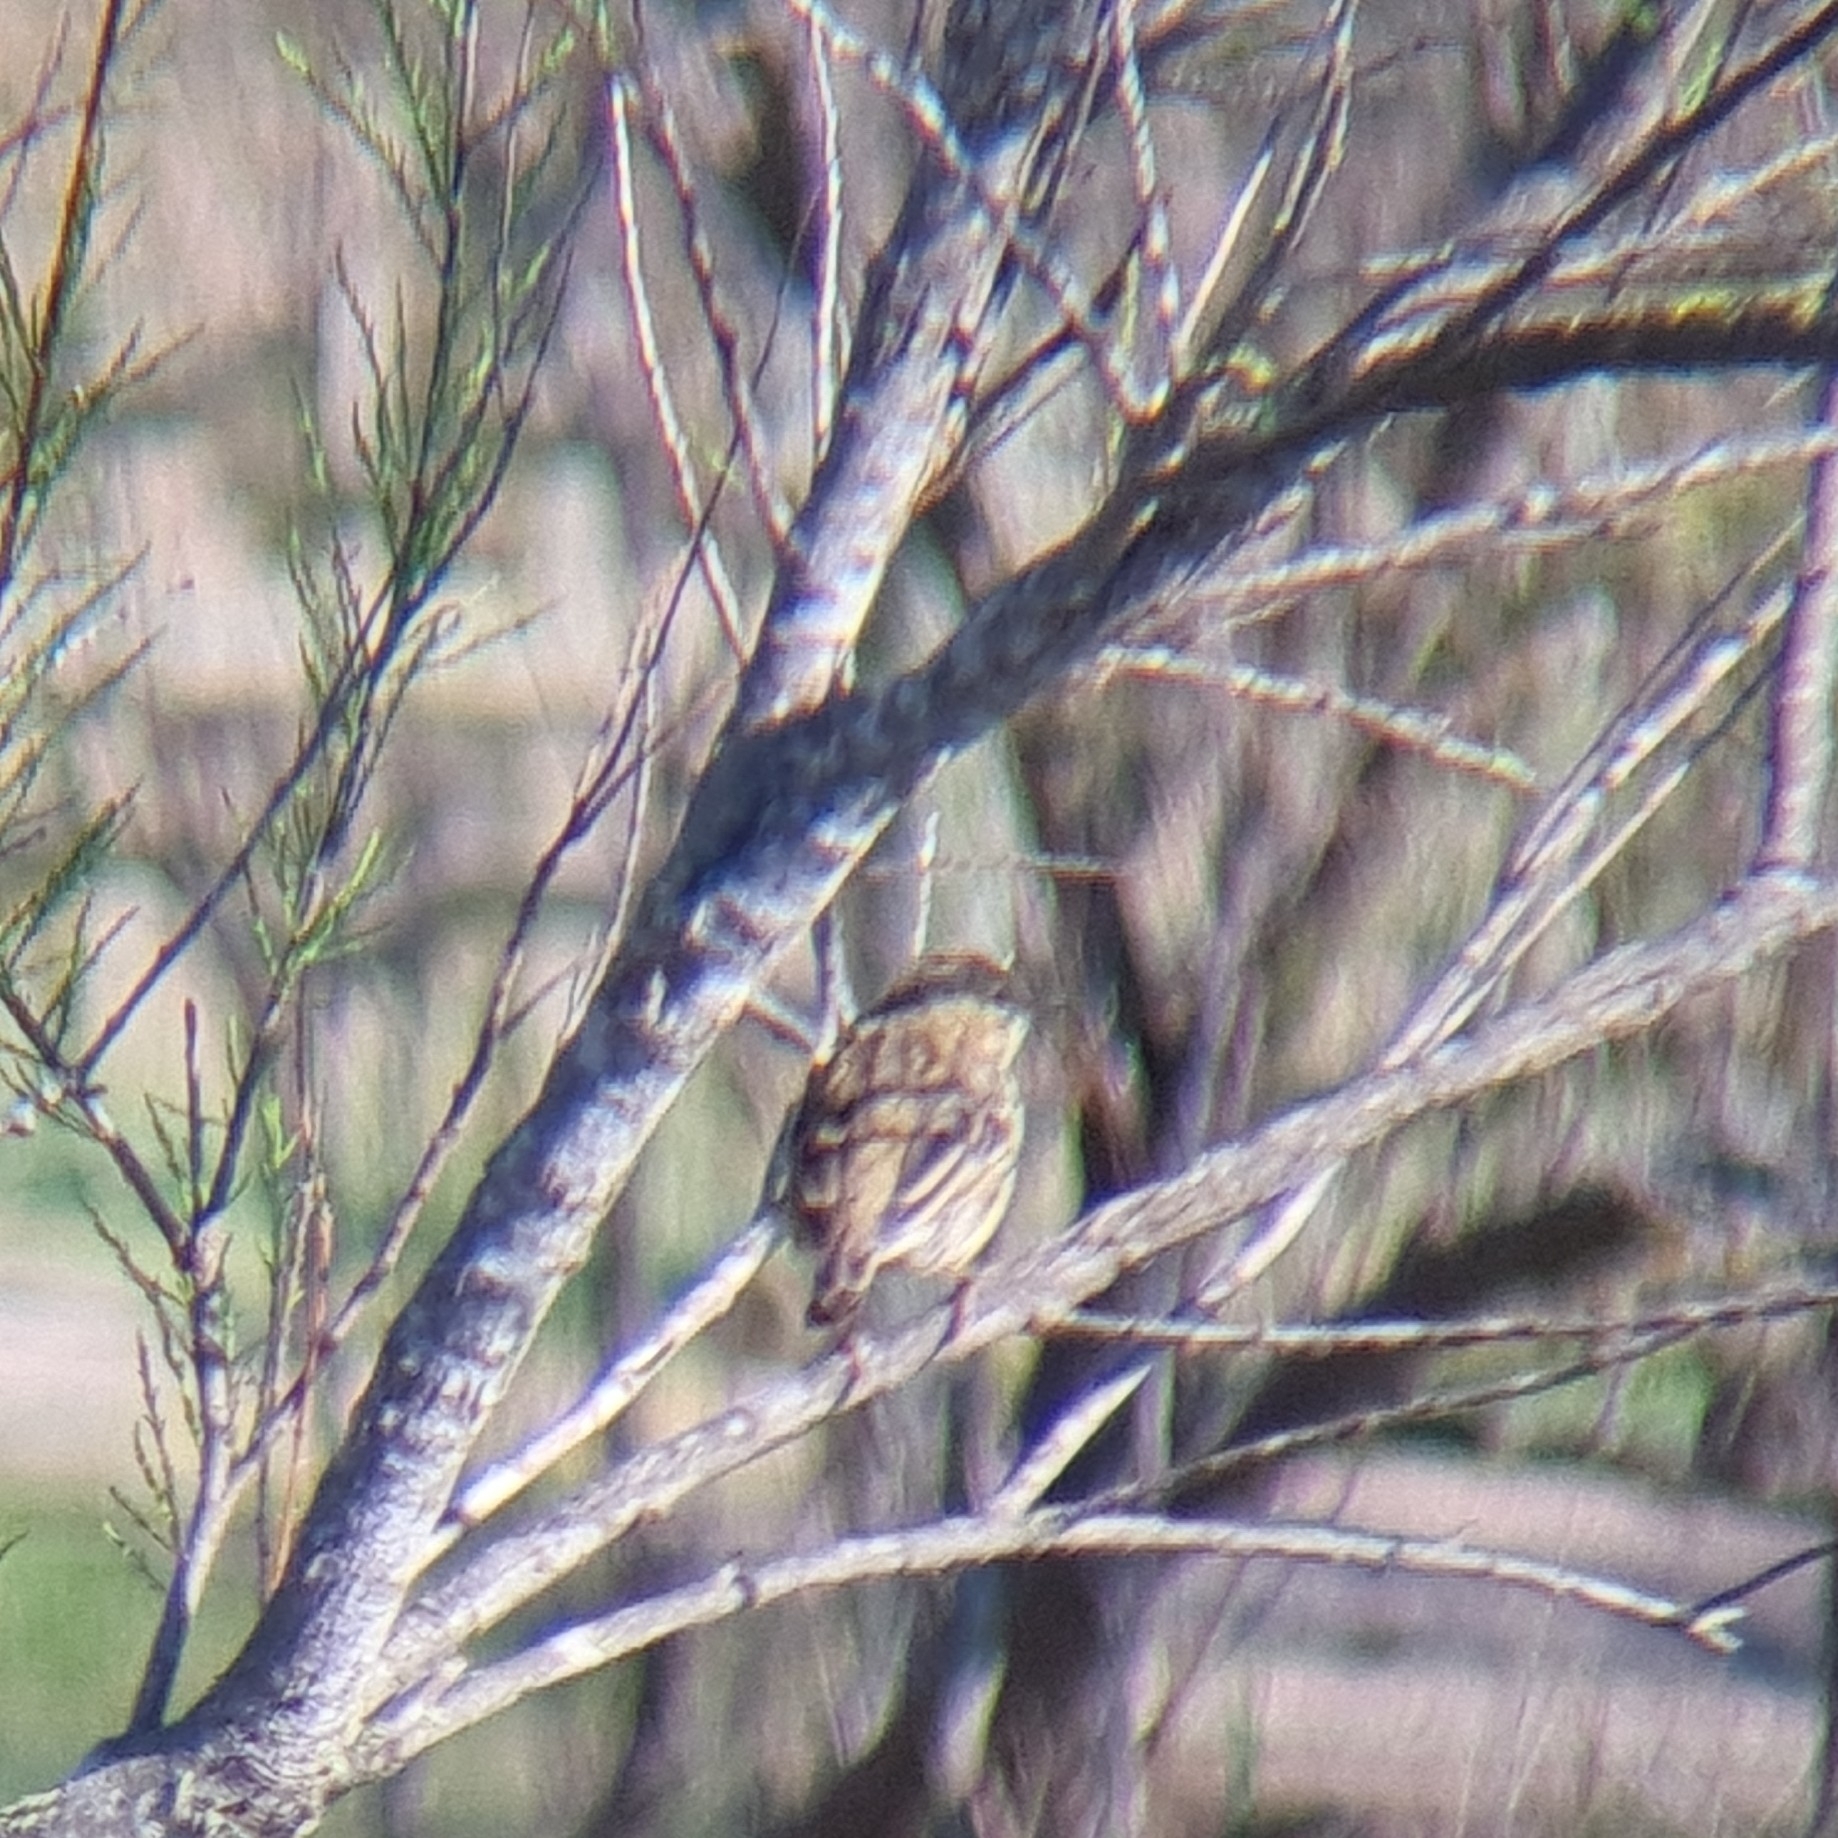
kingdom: Animalia
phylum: Chordata
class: Aves
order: Passeriformes
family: Cisticolidae
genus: Cisticola
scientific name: Cisticola juncidis
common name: Zitting cisticola
